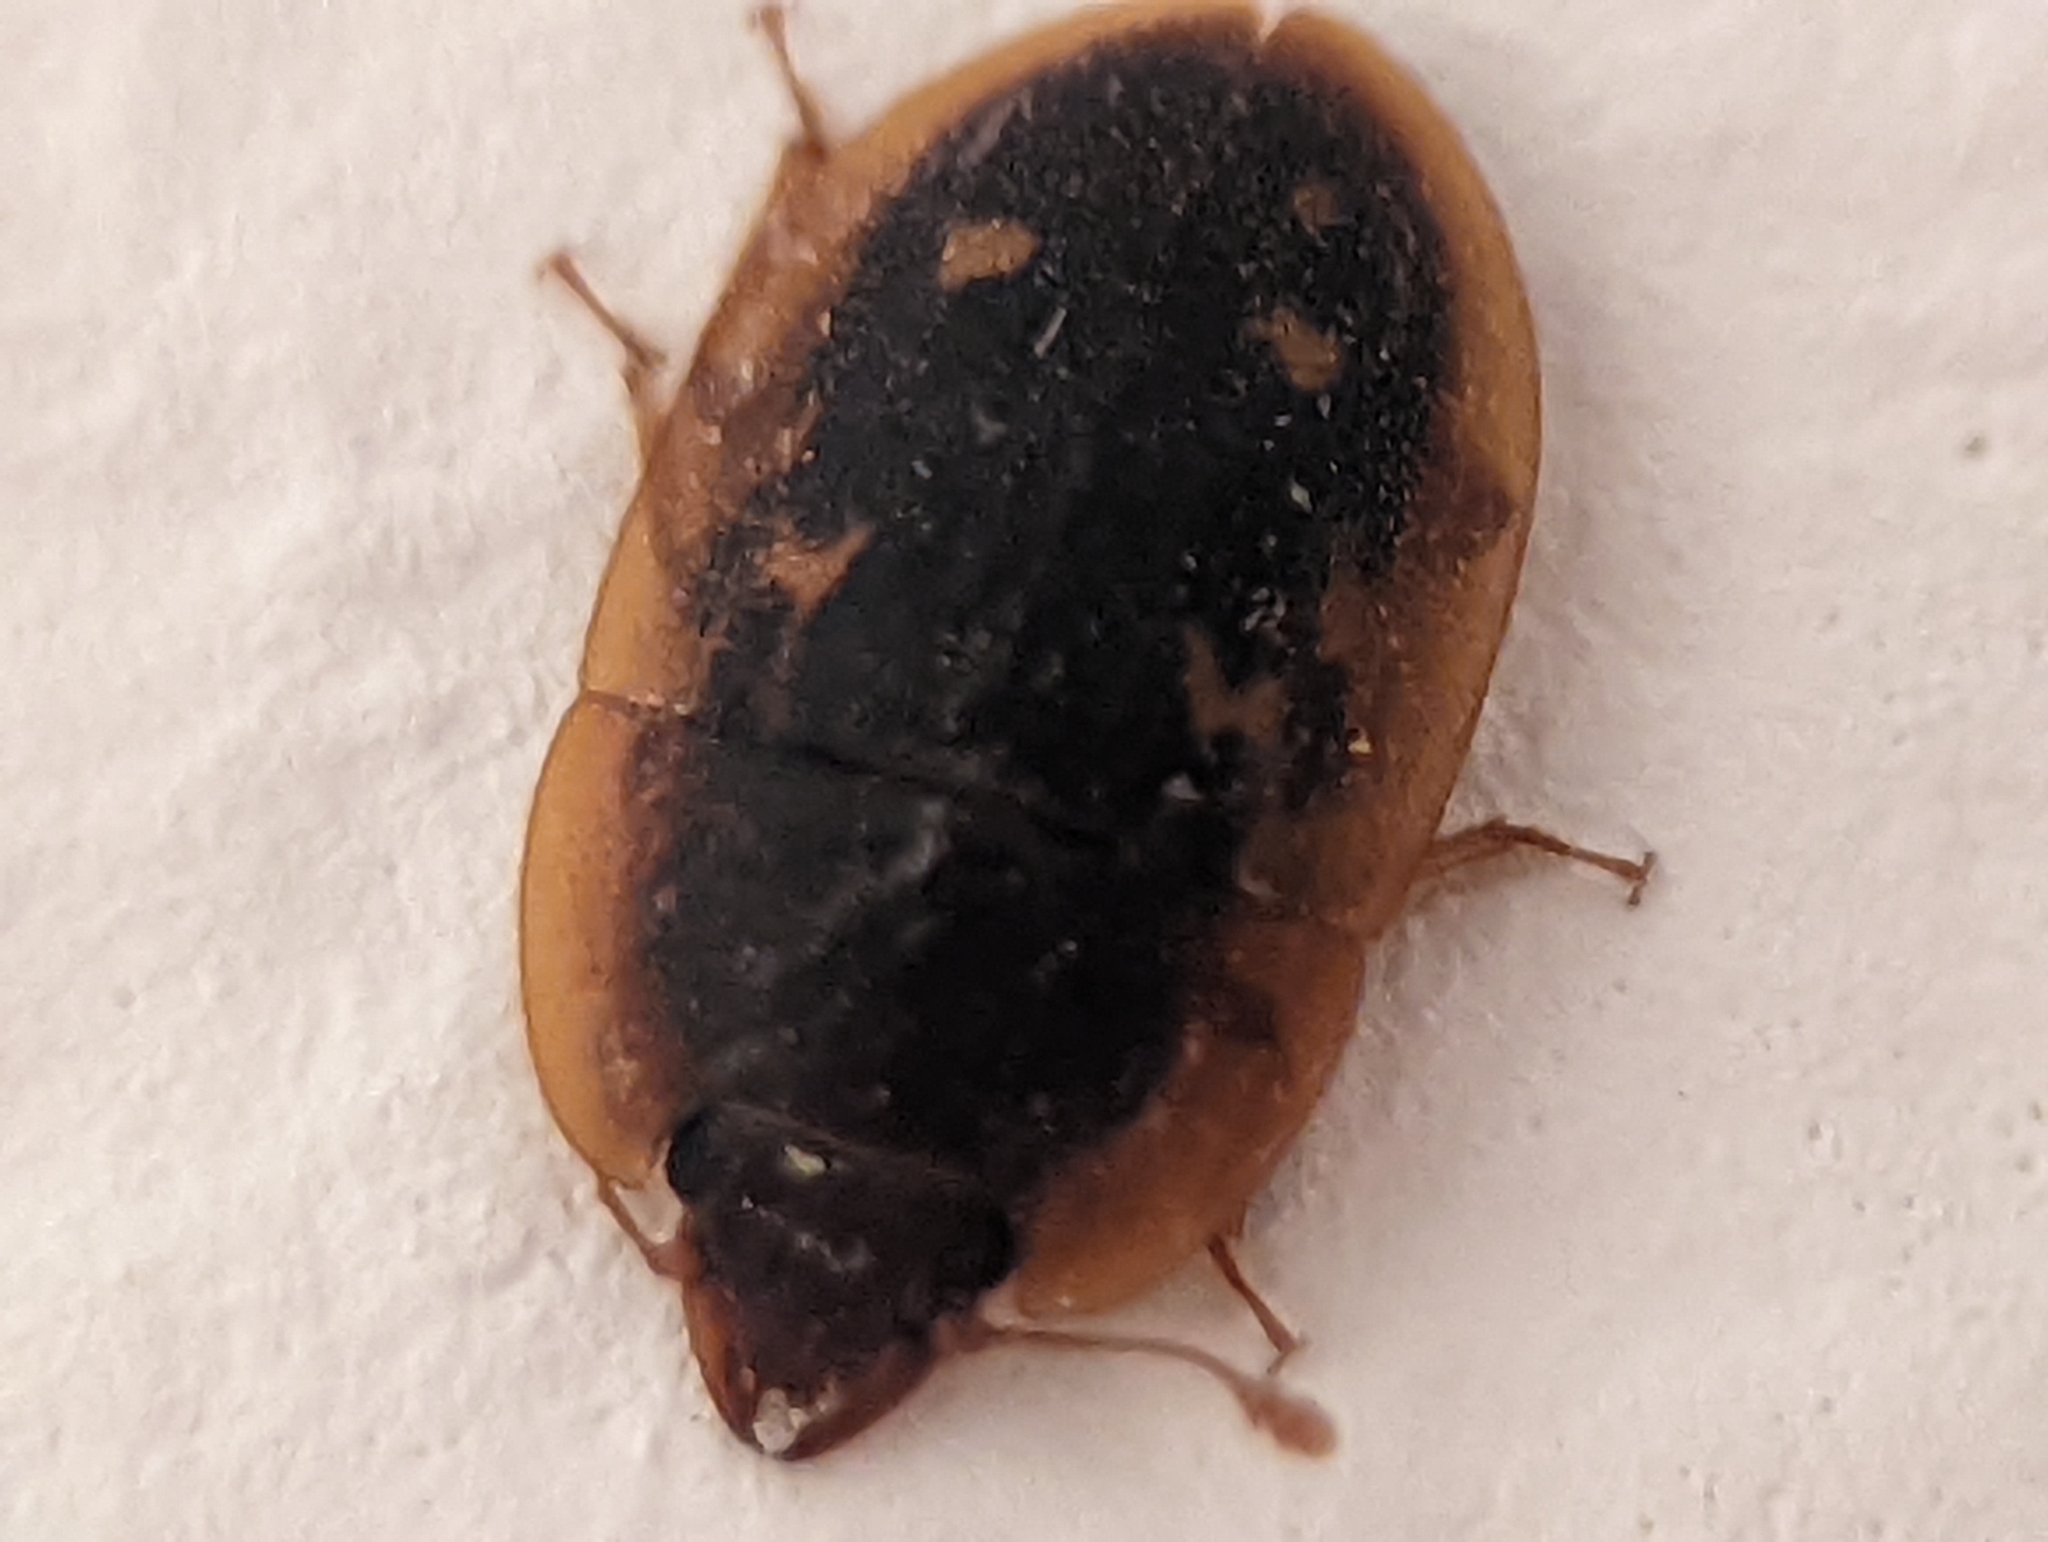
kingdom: Animalia
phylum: Arthropoda
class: Insecta
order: Coleoptera
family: Nitidulidae
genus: Prometopia
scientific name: Prometopia sexmaculata
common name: Six-spotted sap-feeding beetle
